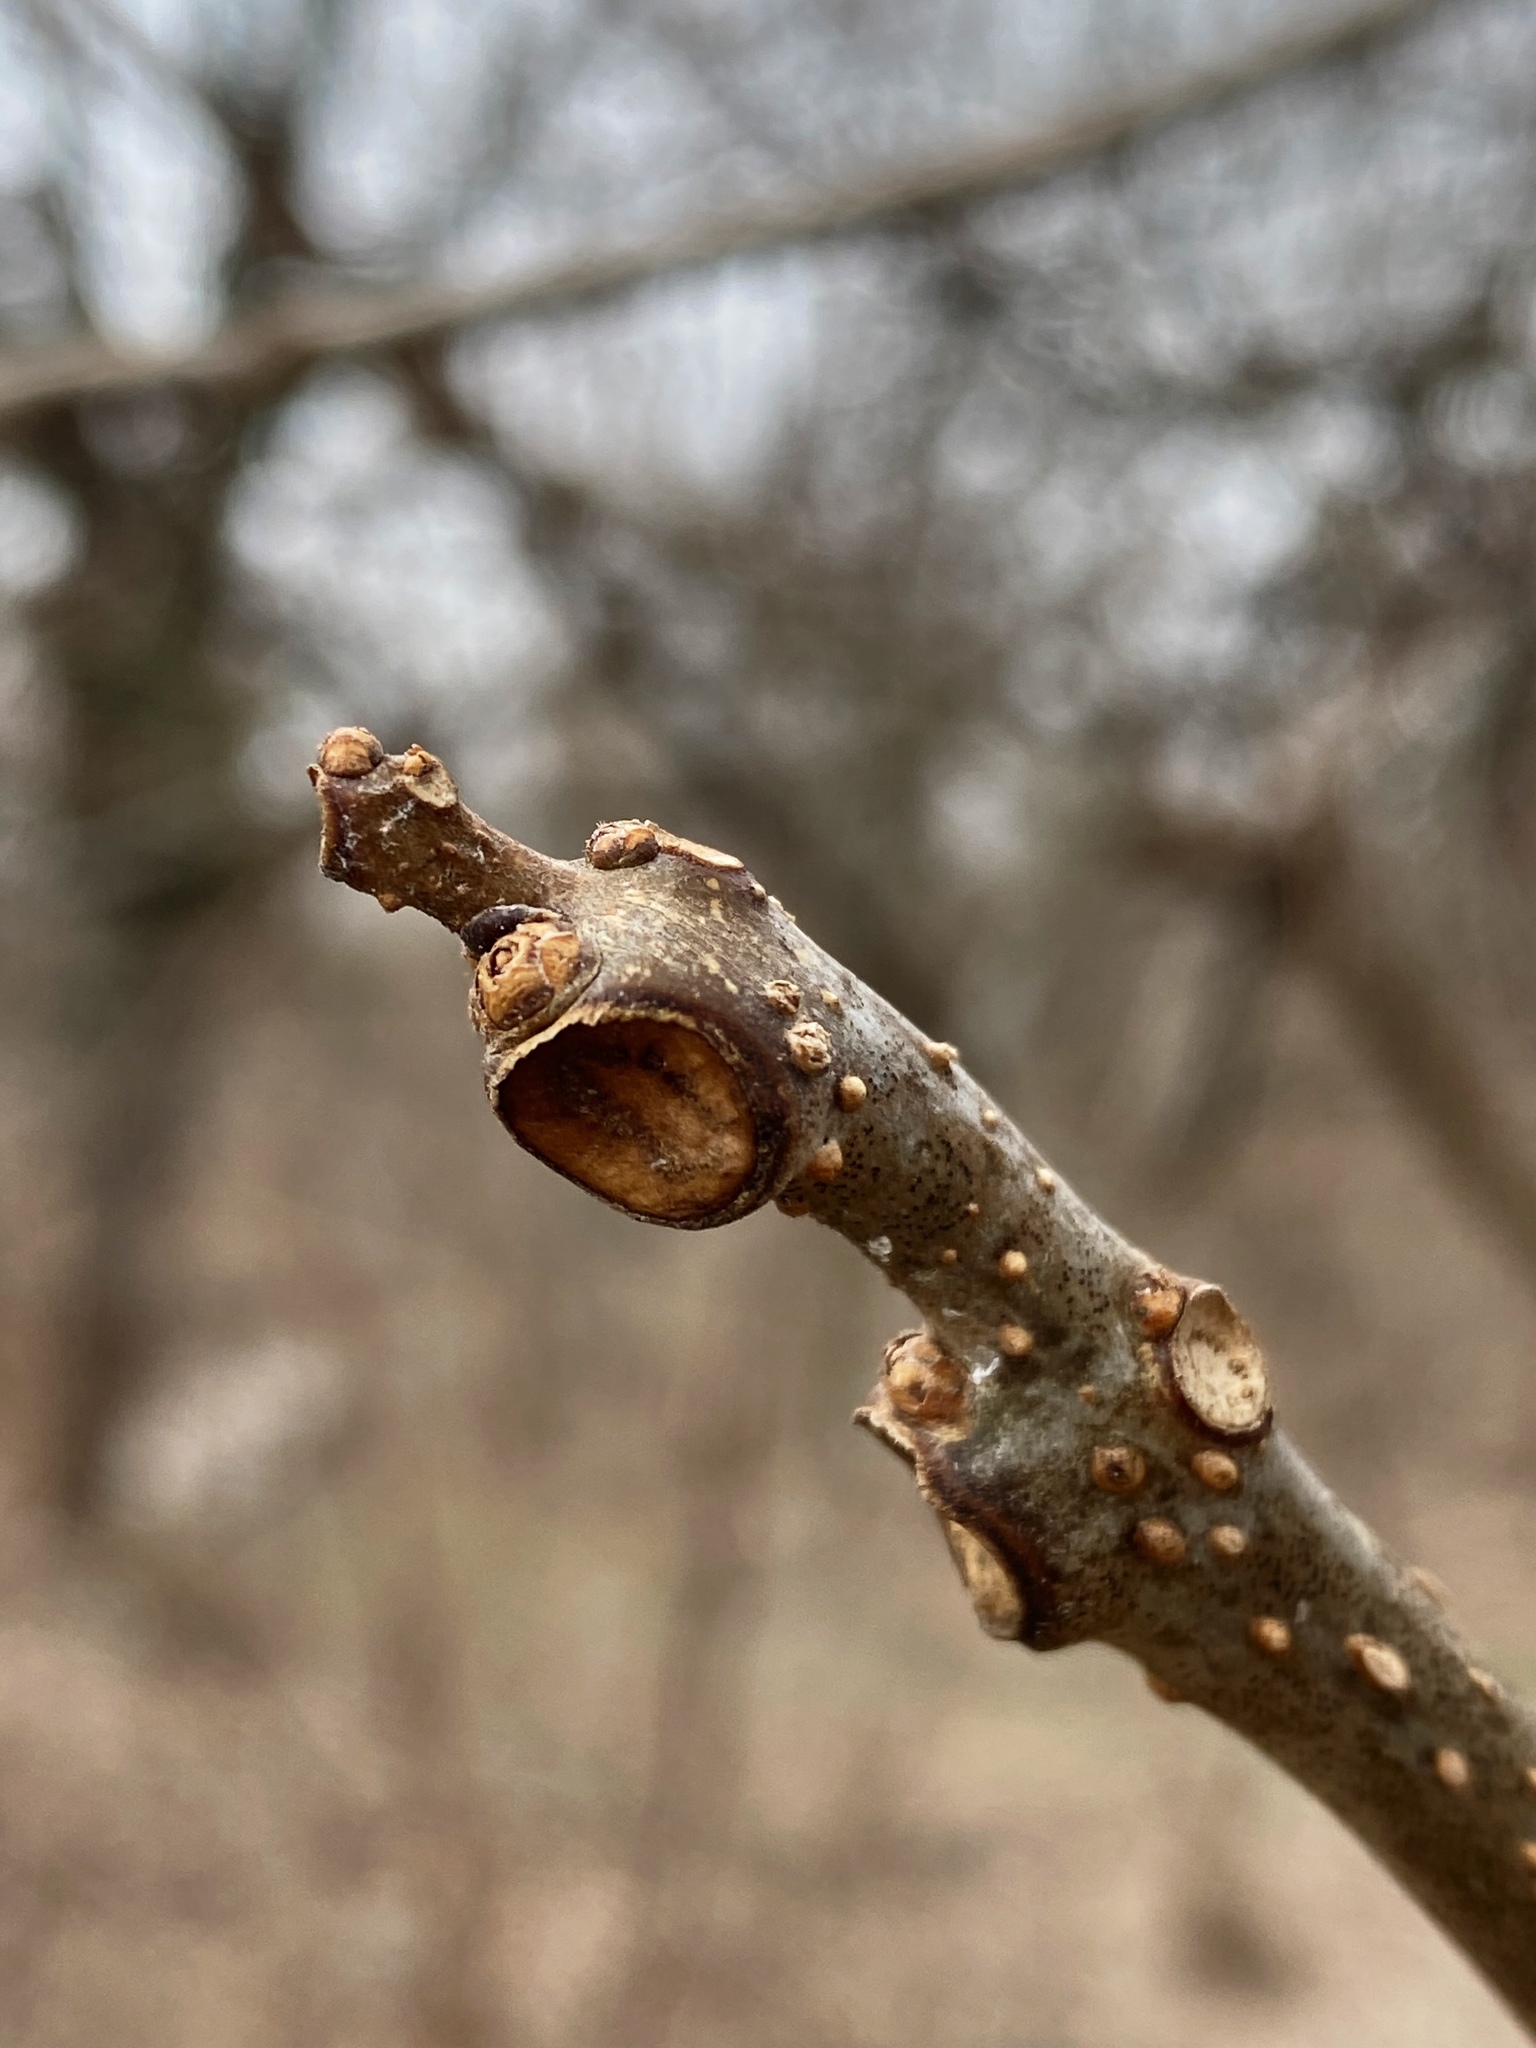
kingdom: Plantae
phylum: Tracheophyta
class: Magnoliopsida
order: Lamiales
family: Bignoniaceae
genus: Catalpa
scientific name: Catalpa
